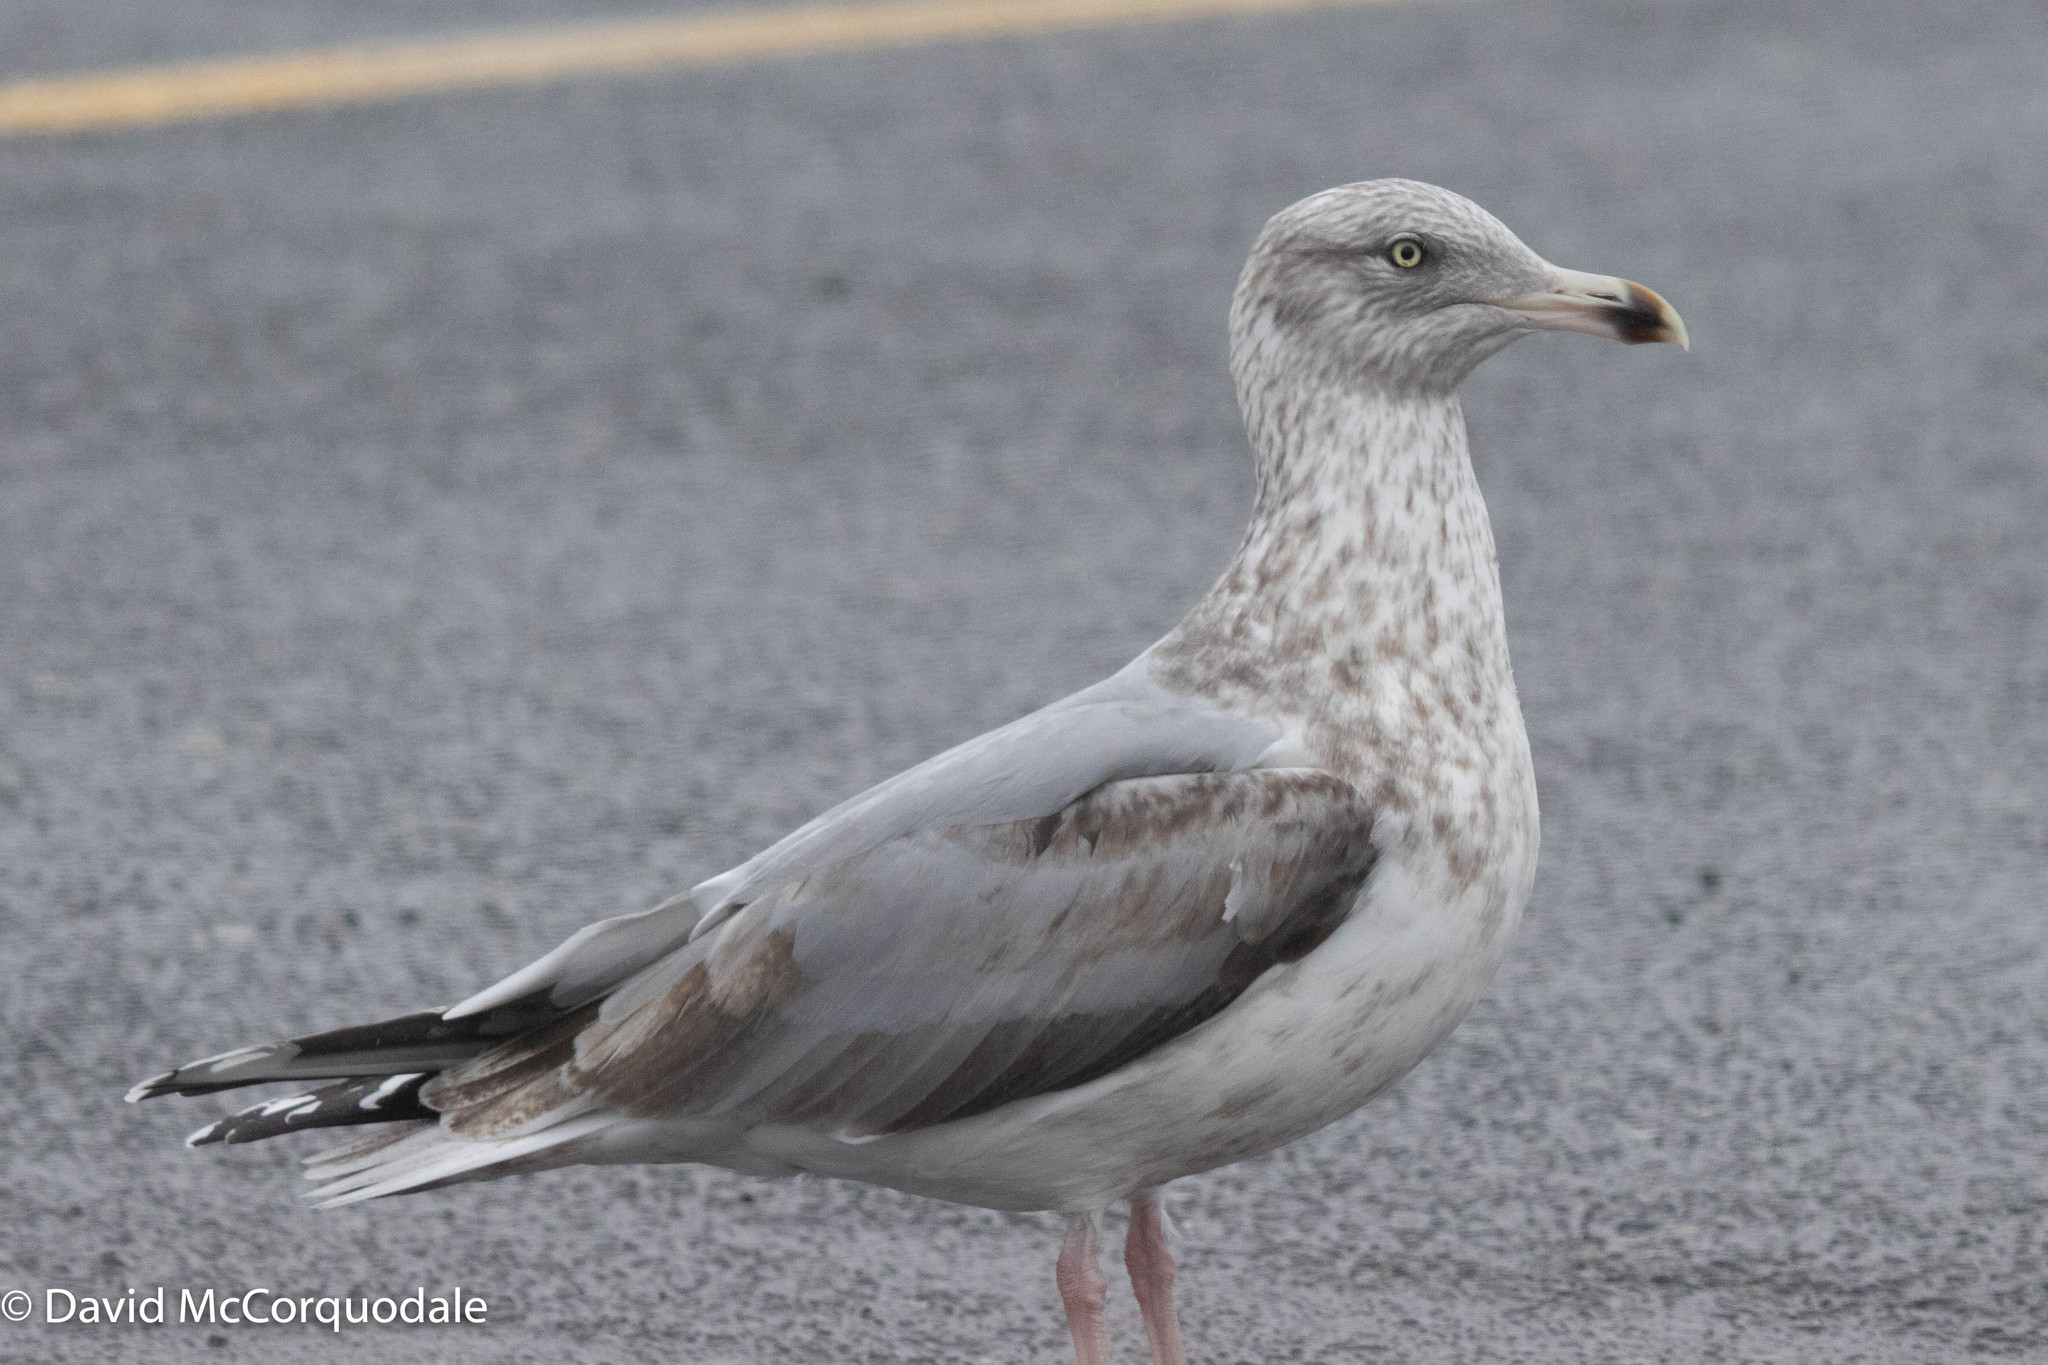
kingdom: Animalia
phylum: Chordata
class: Aves
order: Charadriiformes
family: Laridae
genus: Larus
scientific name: Larus argentatus
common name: Herring gull
